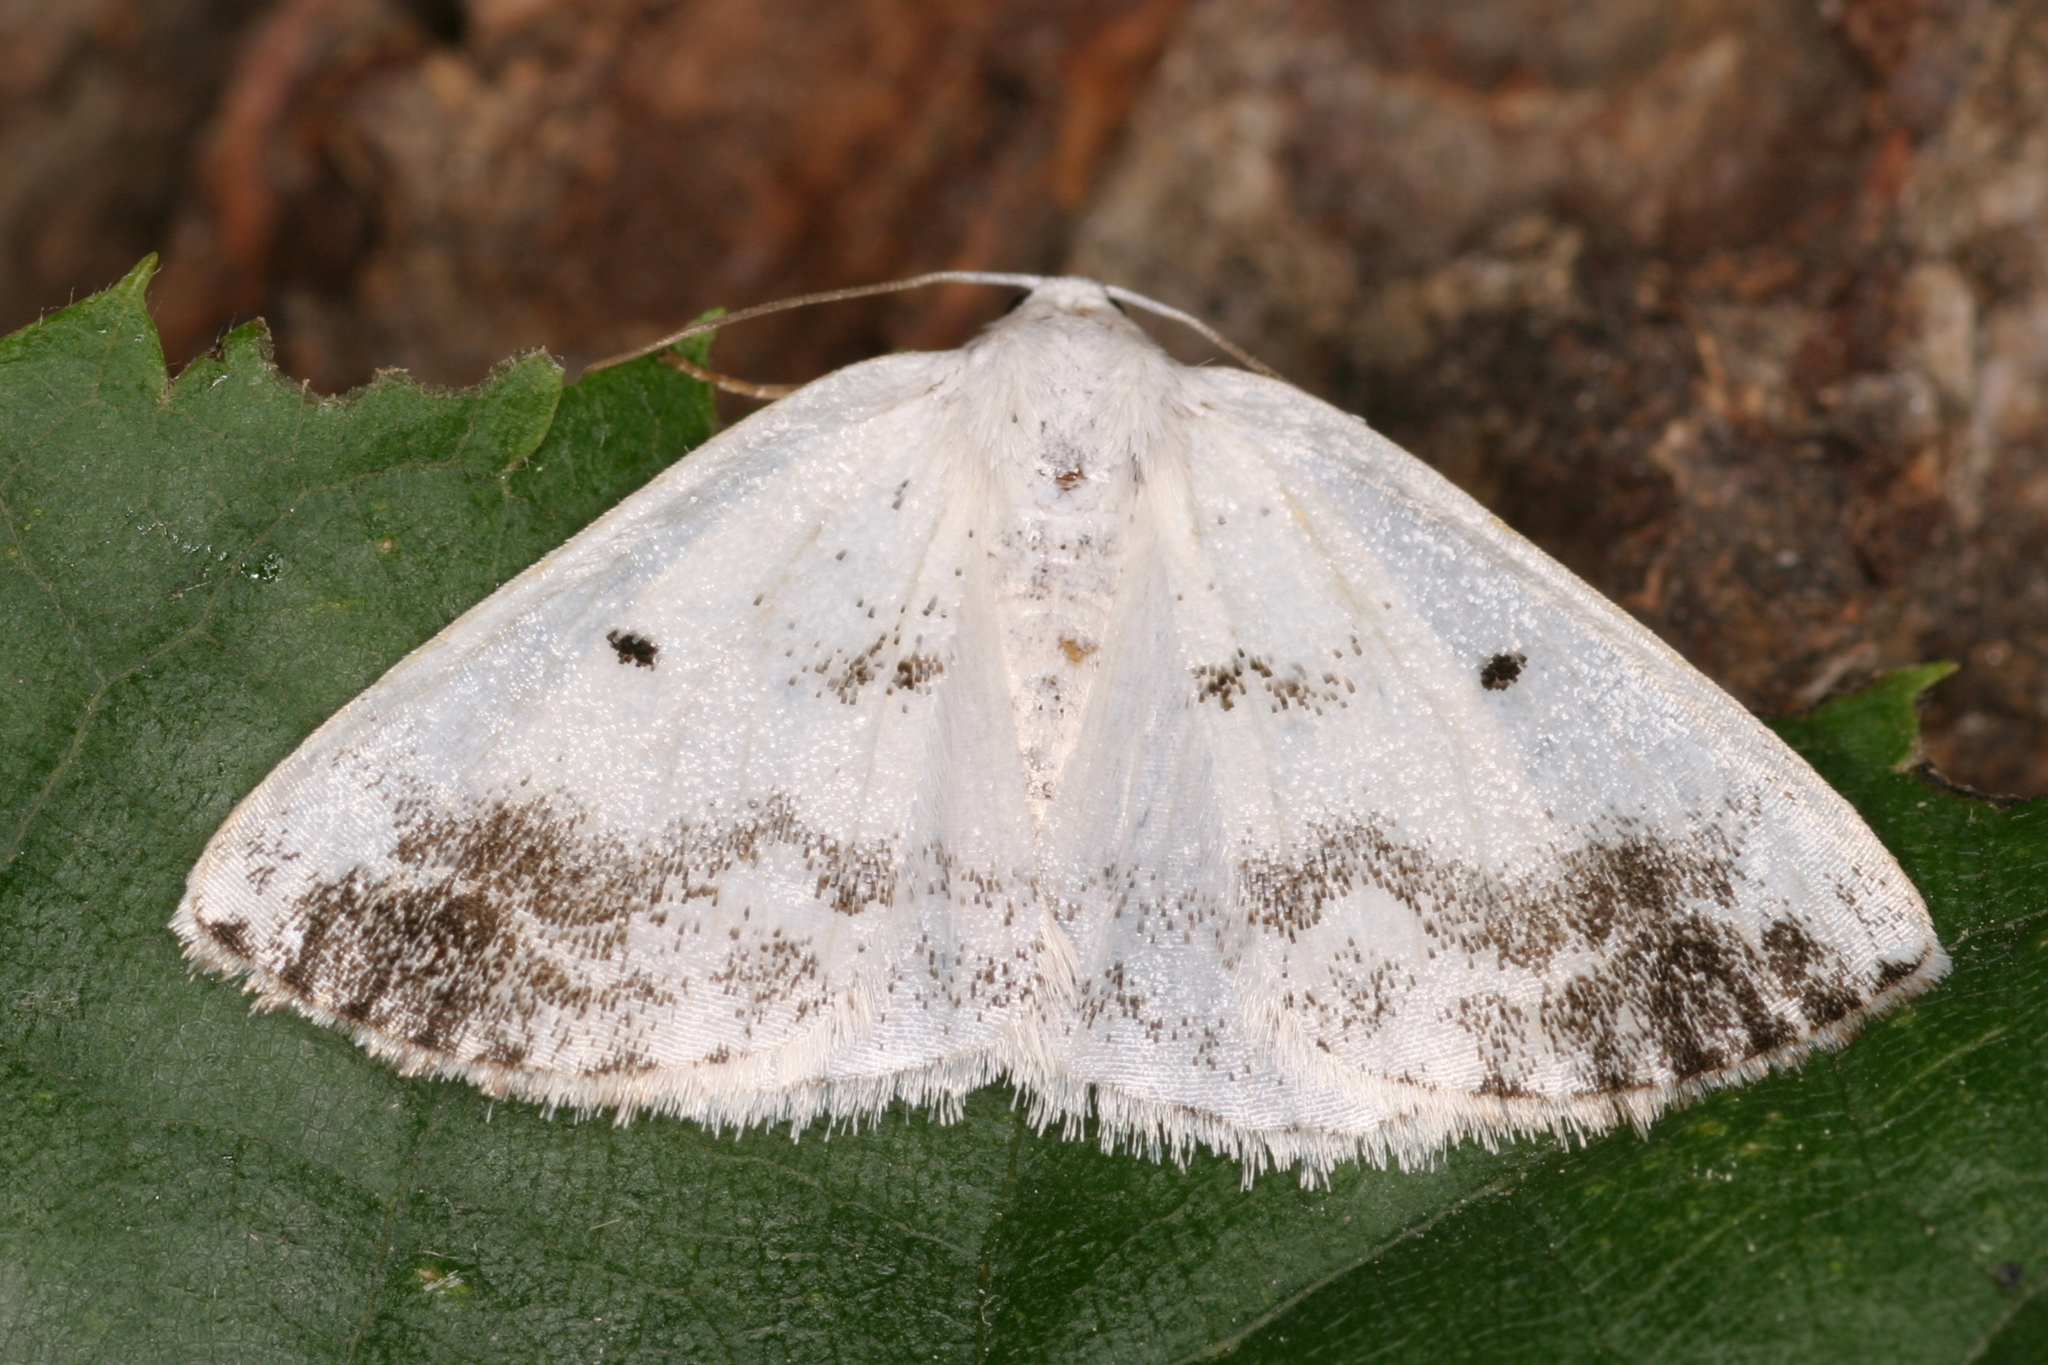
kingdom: Animalia
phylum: Arthropoda
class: Insecta
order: Lepidoptera
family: Geometridae
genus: Lomographa
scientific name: Lomographa temerata
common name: Clouded silver
